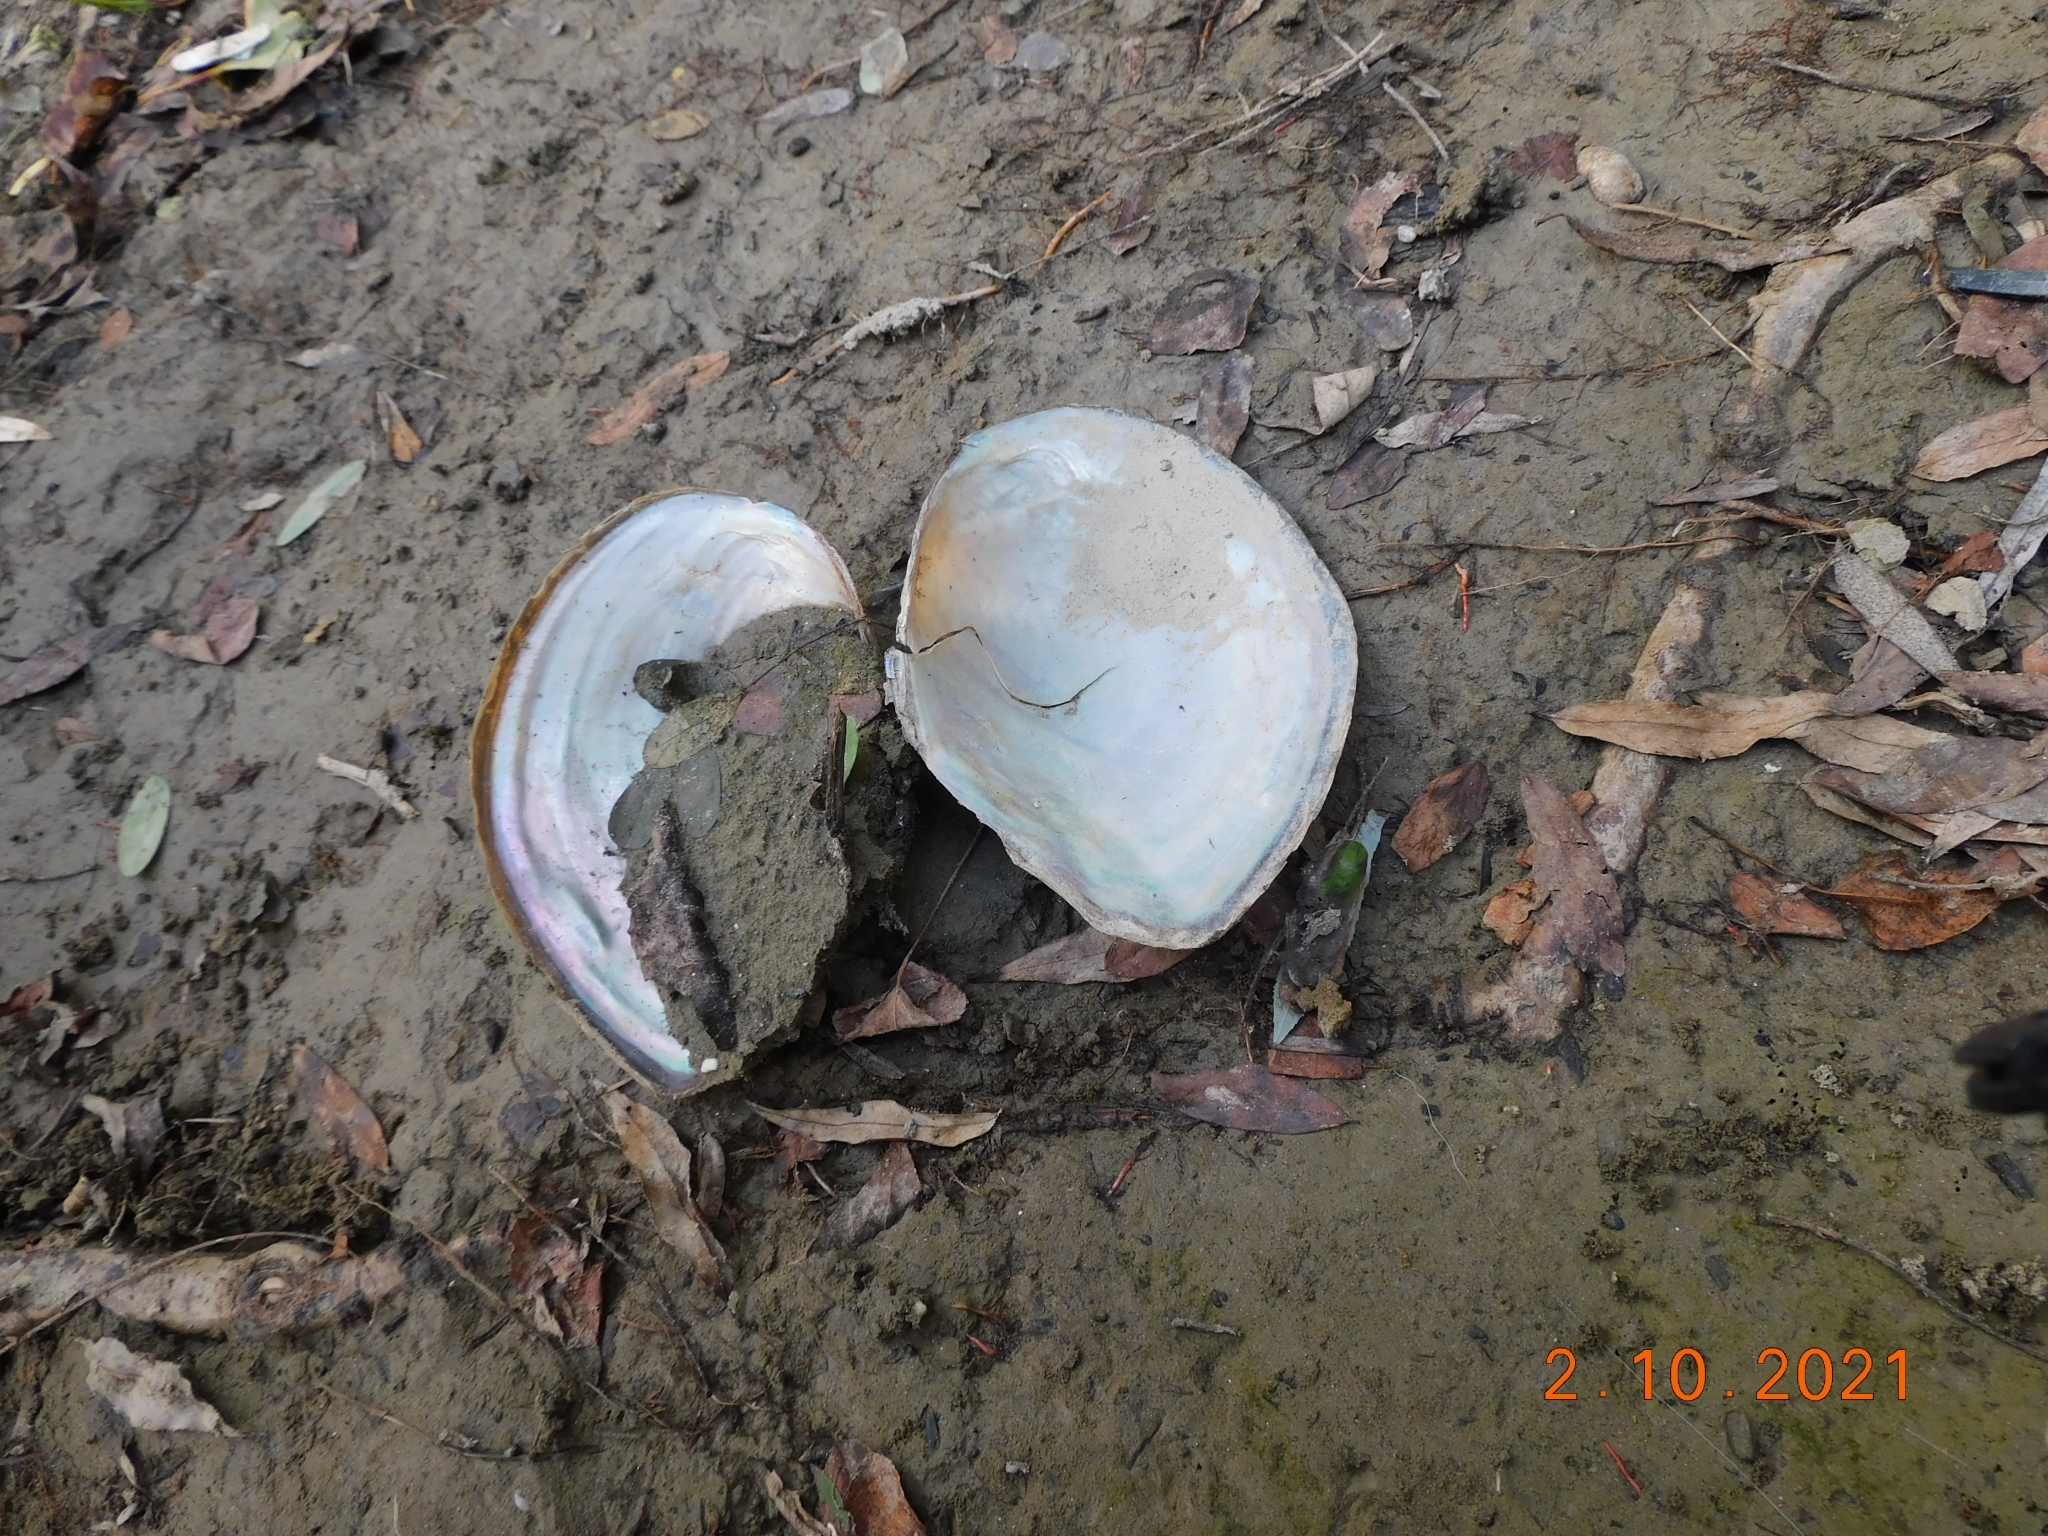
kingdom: Animalia
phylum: Mollusca
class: Bivalvia
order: Unionida
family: Unionidae
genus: Sinanodonta
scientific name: Sinanodonta woodiana
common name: Chinese pond mussel
